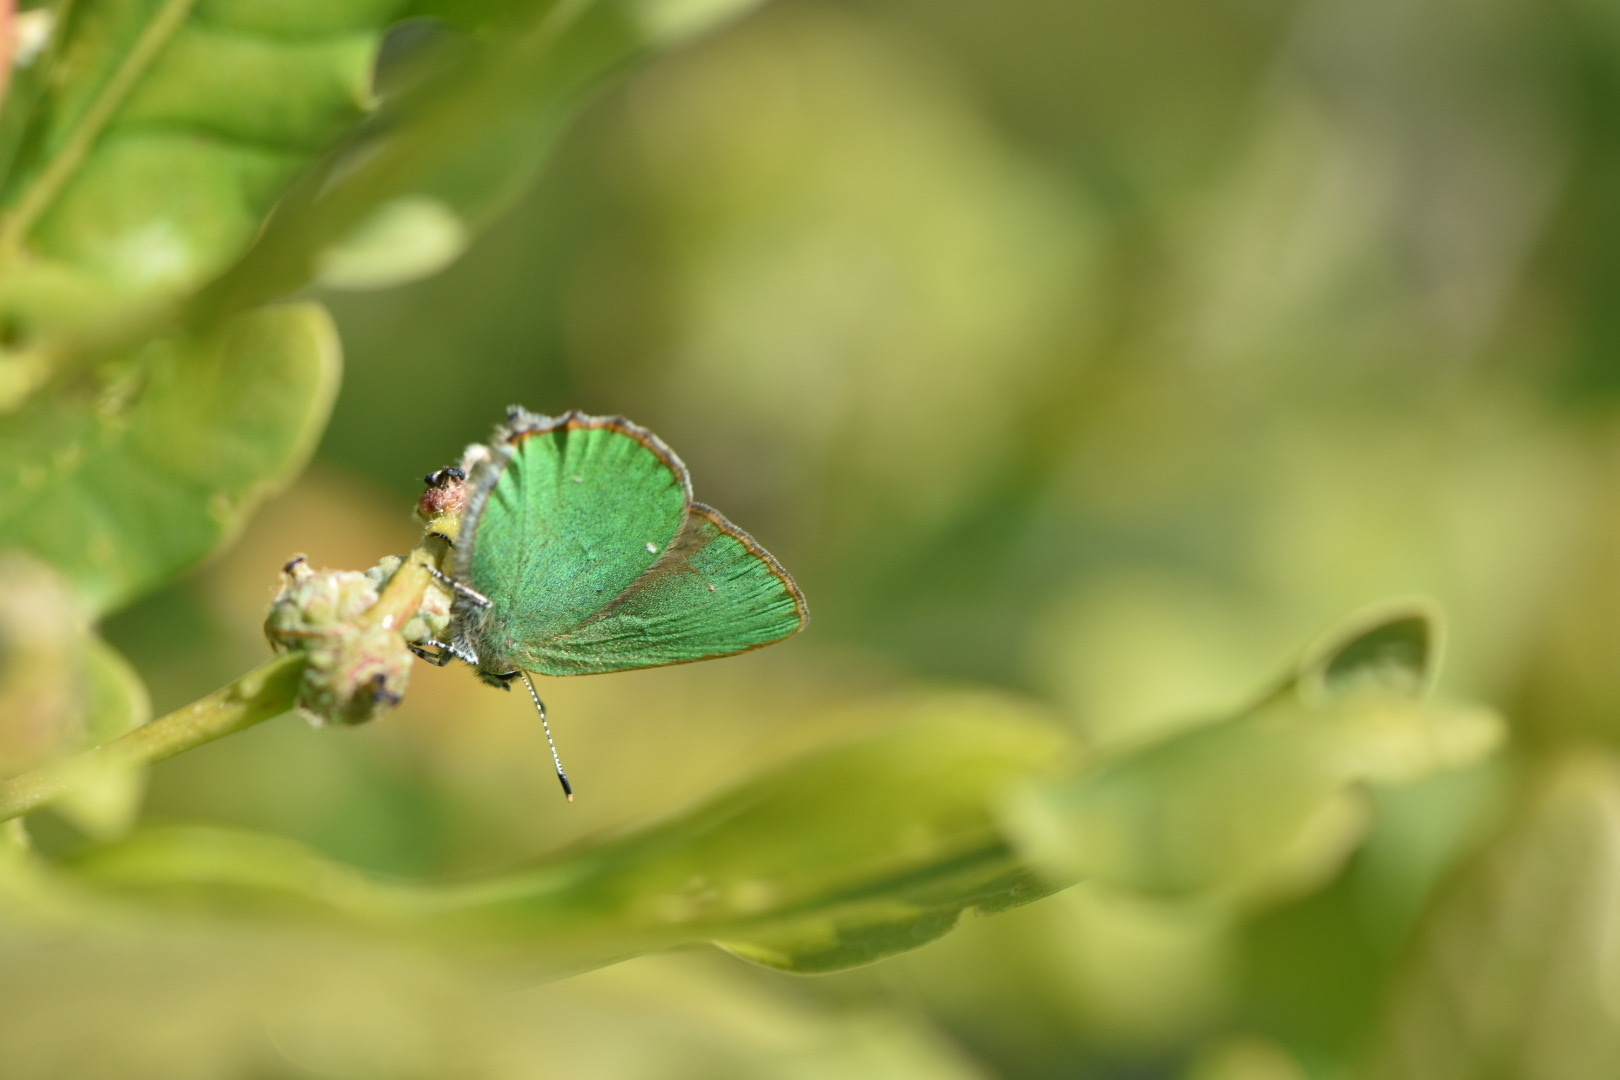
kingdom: Animalia
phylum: Arthropoda
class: Insecta
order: Lepidoptera
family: Lycaenidae
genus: Callophrys
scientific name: Callophrys rubi
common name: Green hairstreak
